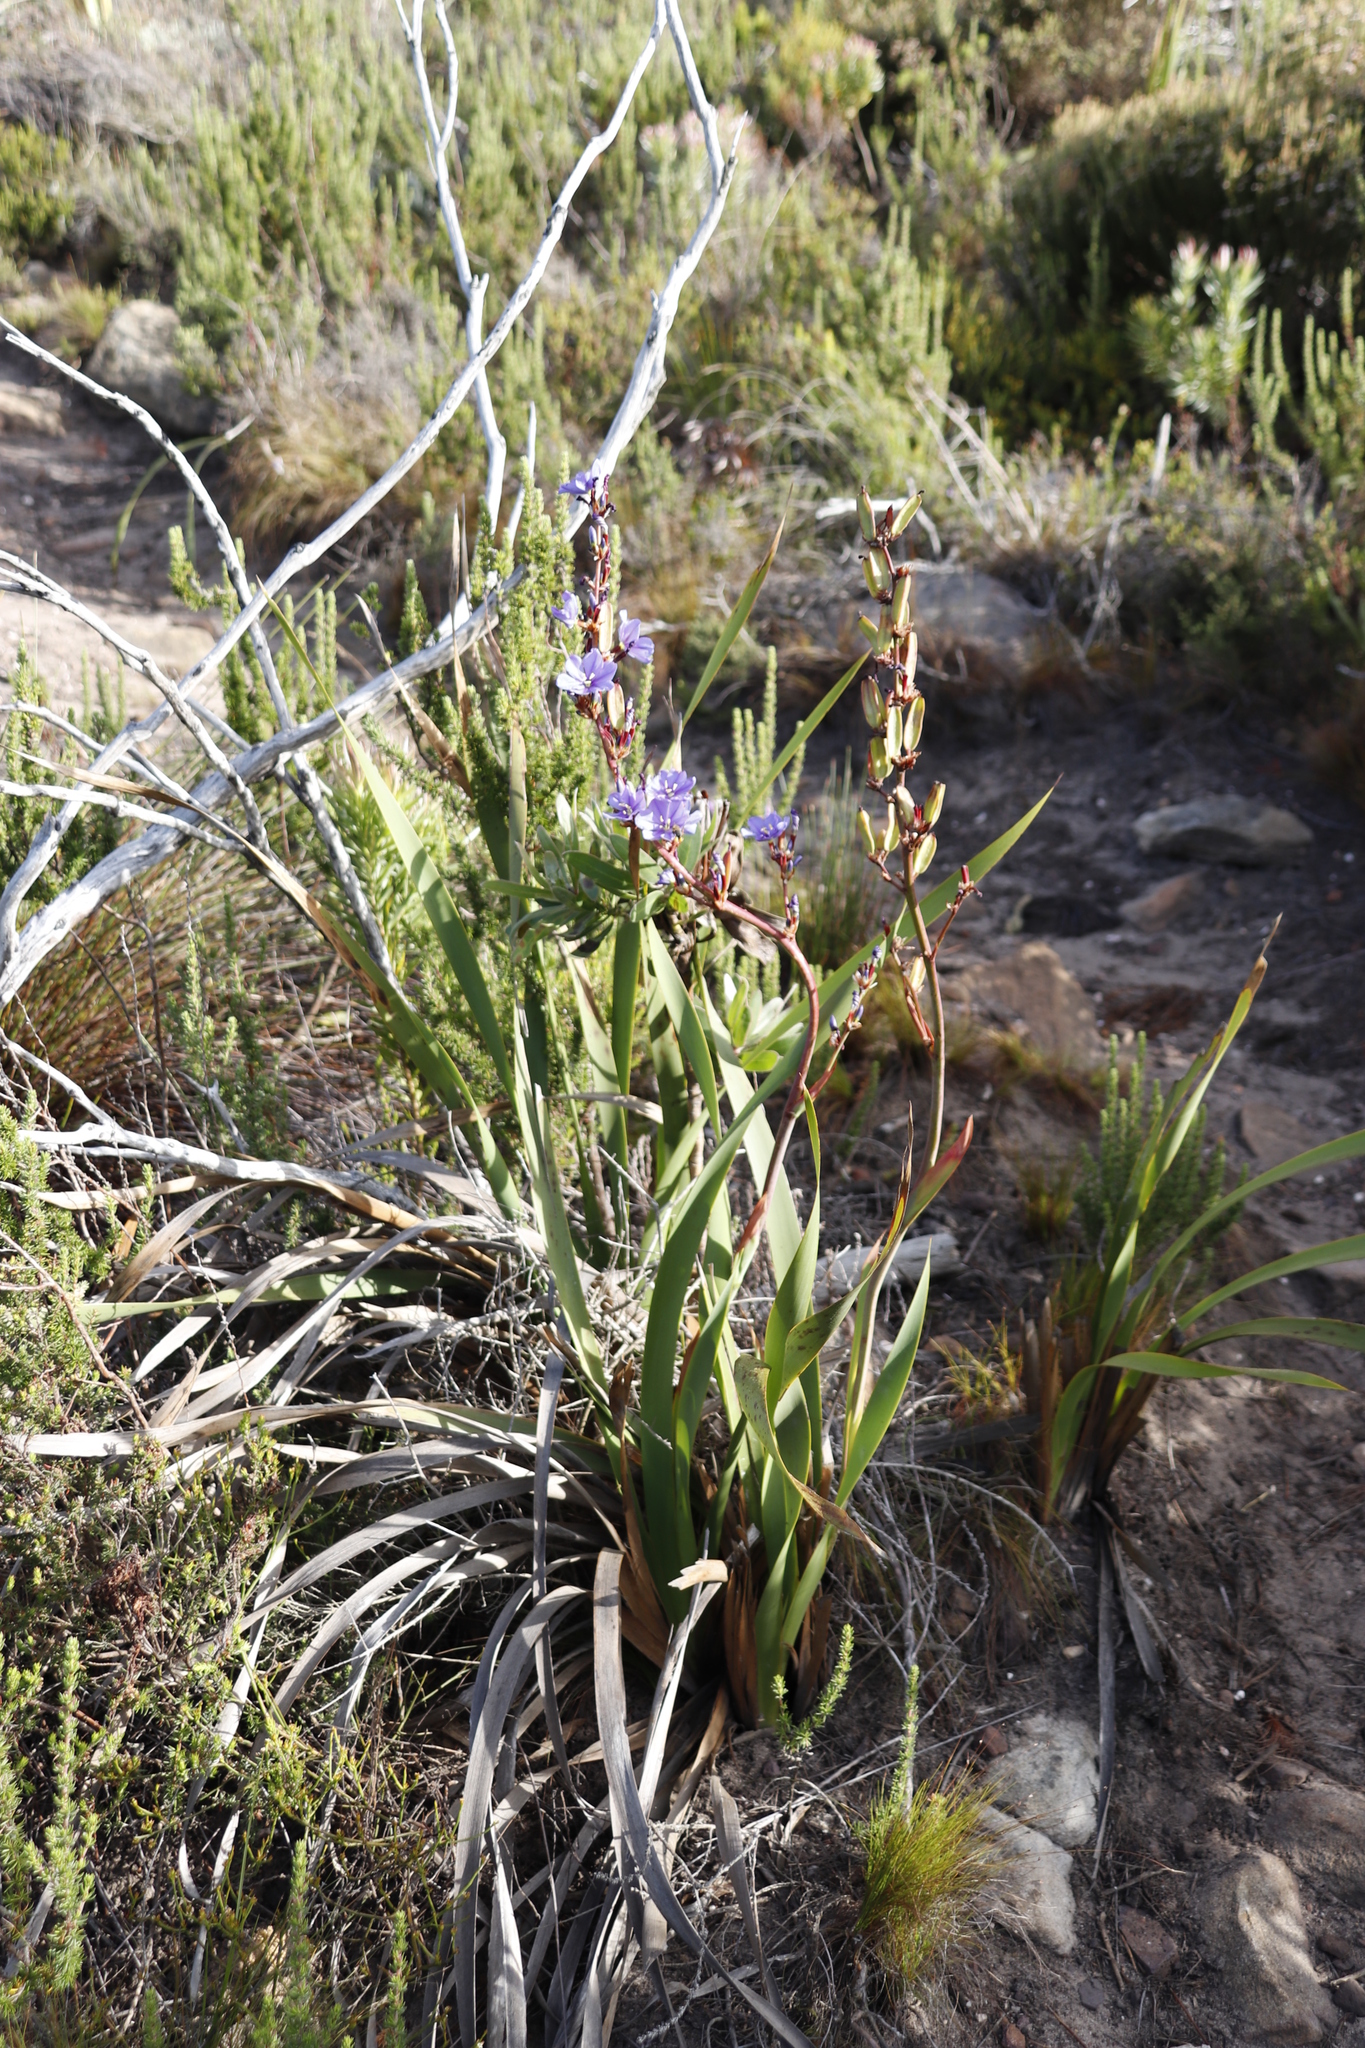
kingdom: Plantae
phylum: Tracheophyta
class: Liliopsida
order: Asparagales
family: Iridaceae
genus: Aristea
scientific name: Aristea bakeri
